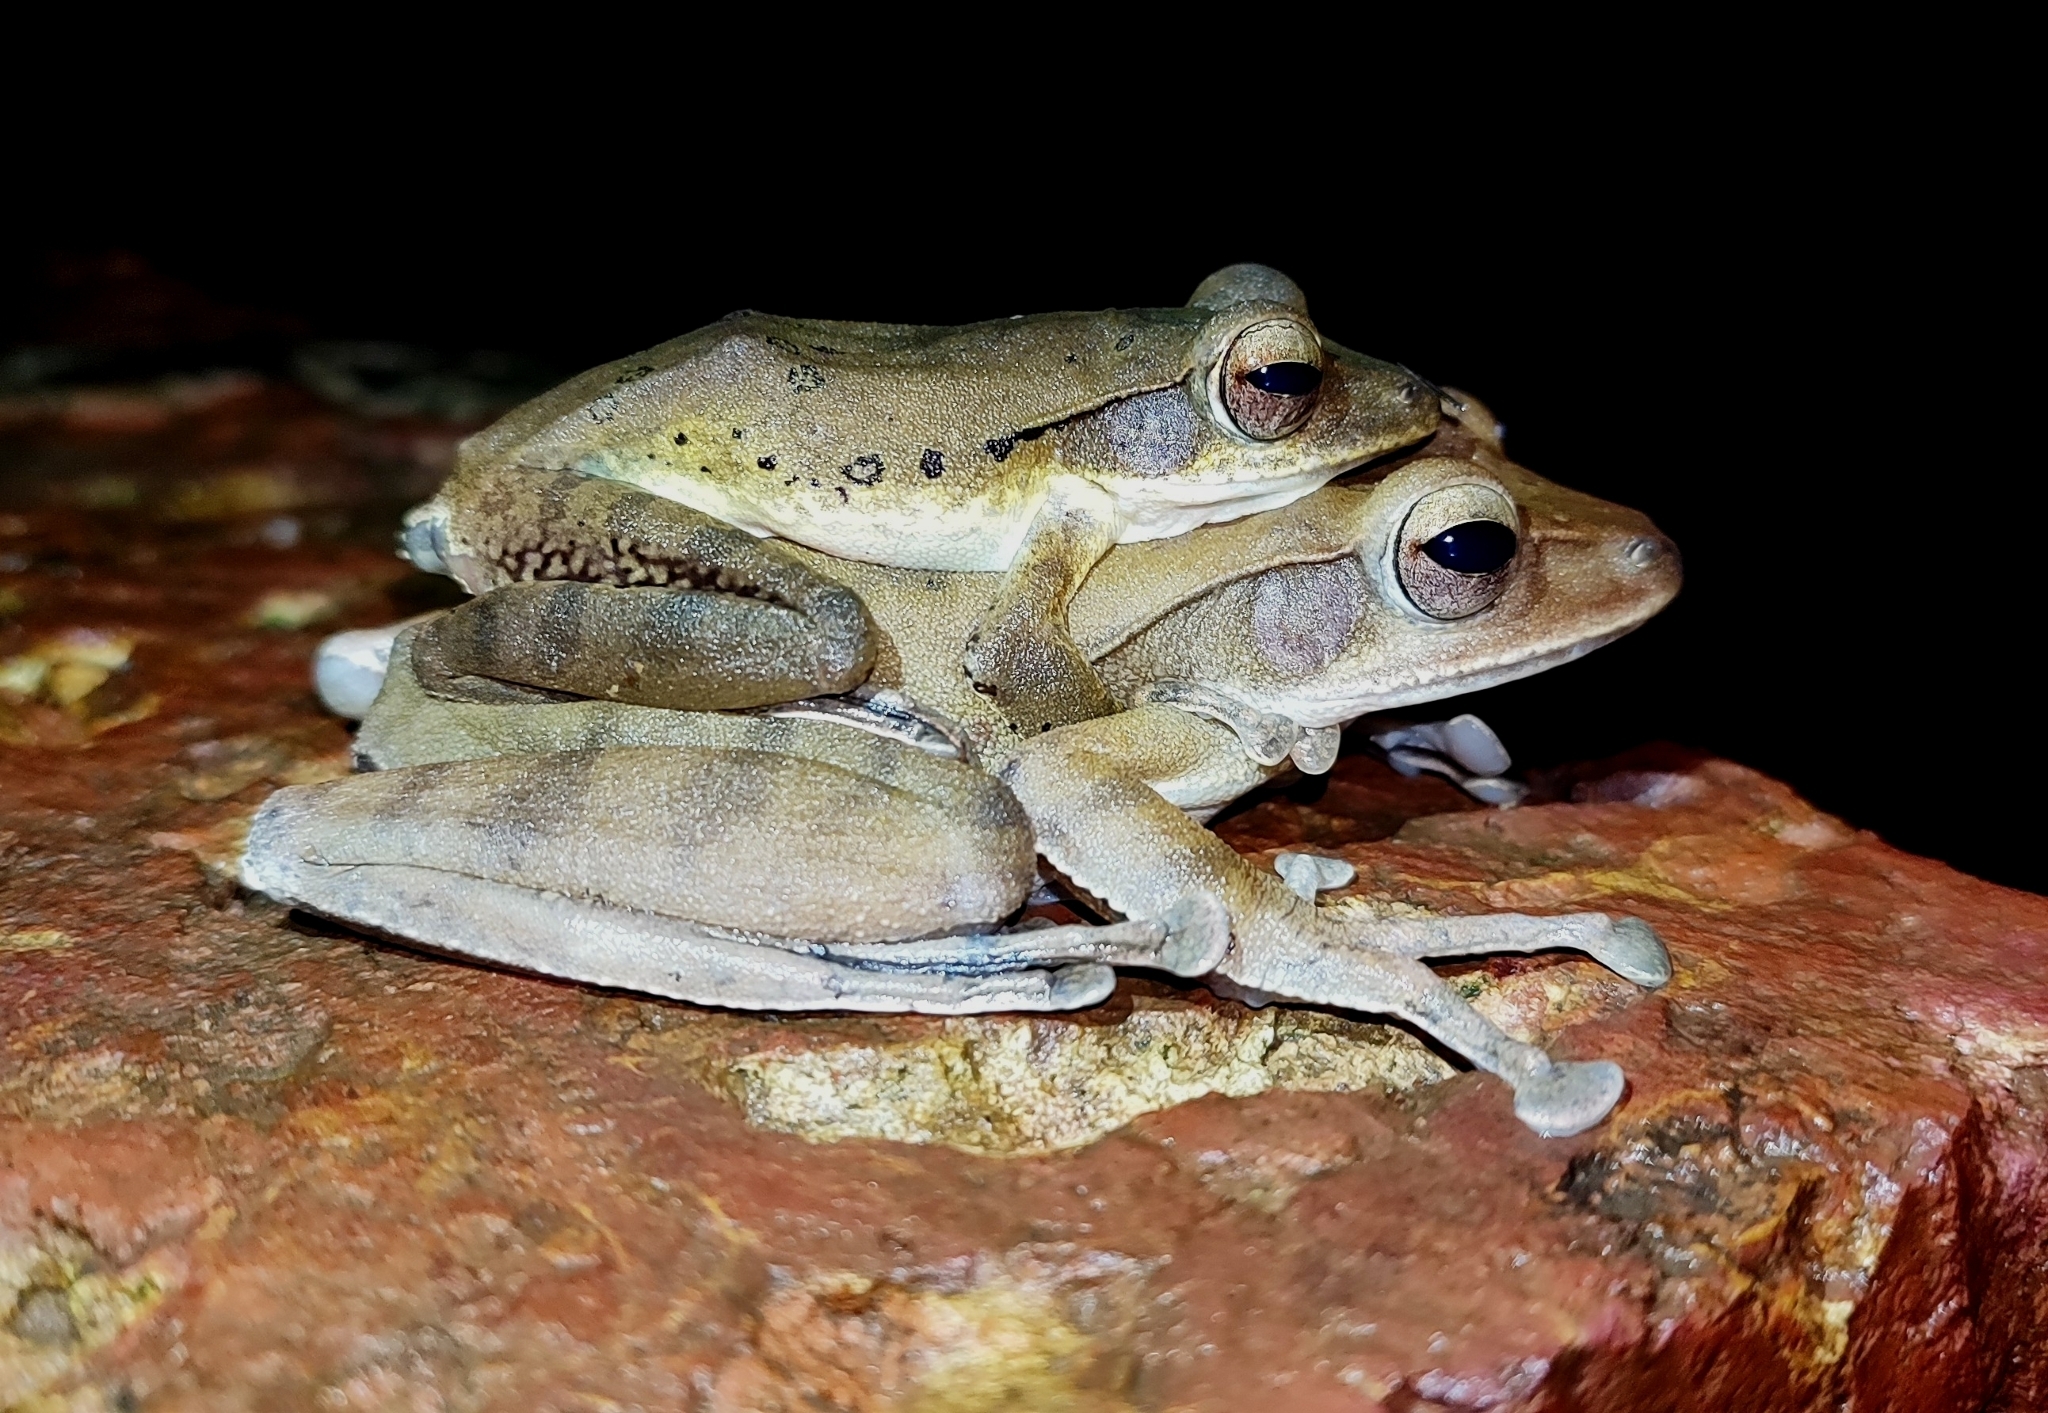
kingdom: Animalia
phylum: Chordata
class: Amphibia
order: Anura
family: Rhacophoridae
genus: Polypedates
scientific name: Polypedates maculatus
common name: Himalayan tree frog
